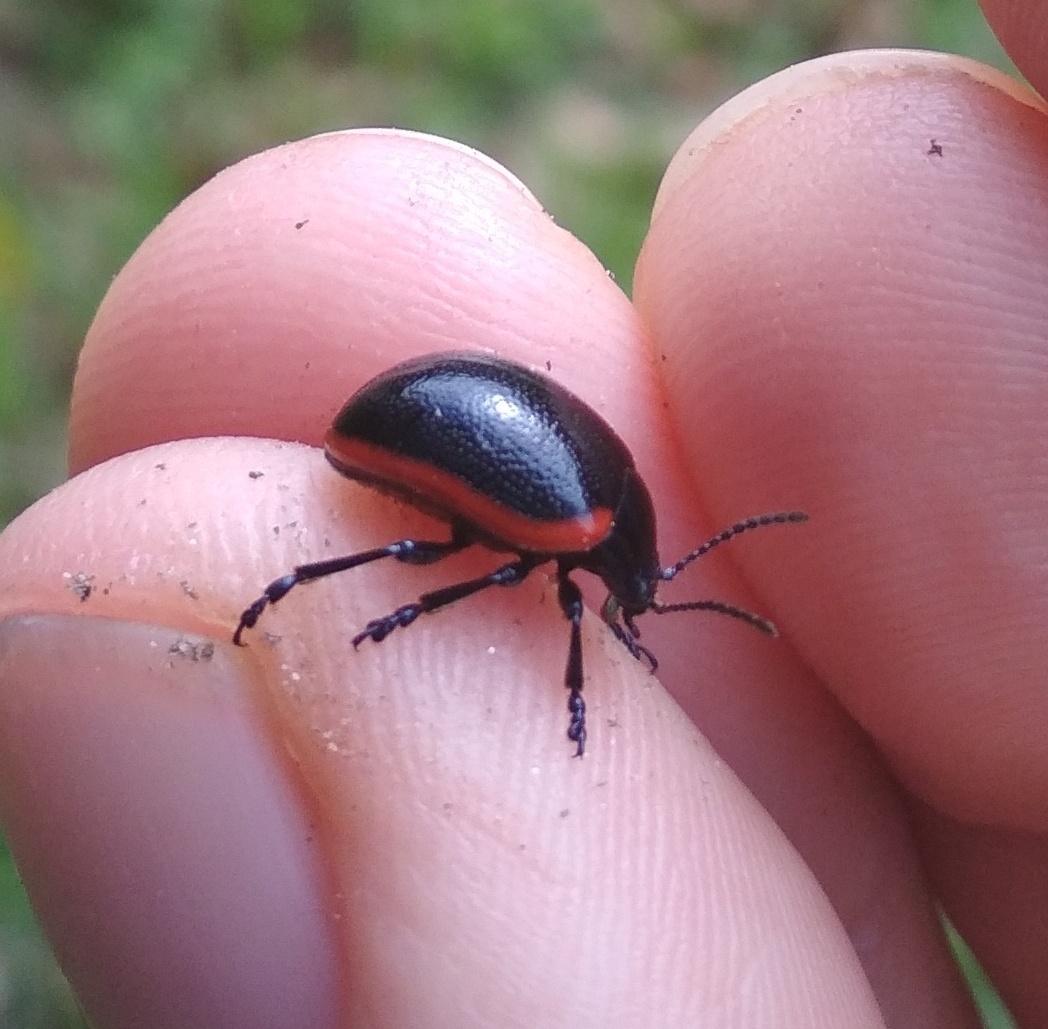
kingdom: Animalia
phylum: Arthropoda
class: Insecta
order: Coleoptera
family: Chrysomelidae
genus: Chrysolina
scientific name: Chrysolina rossia
